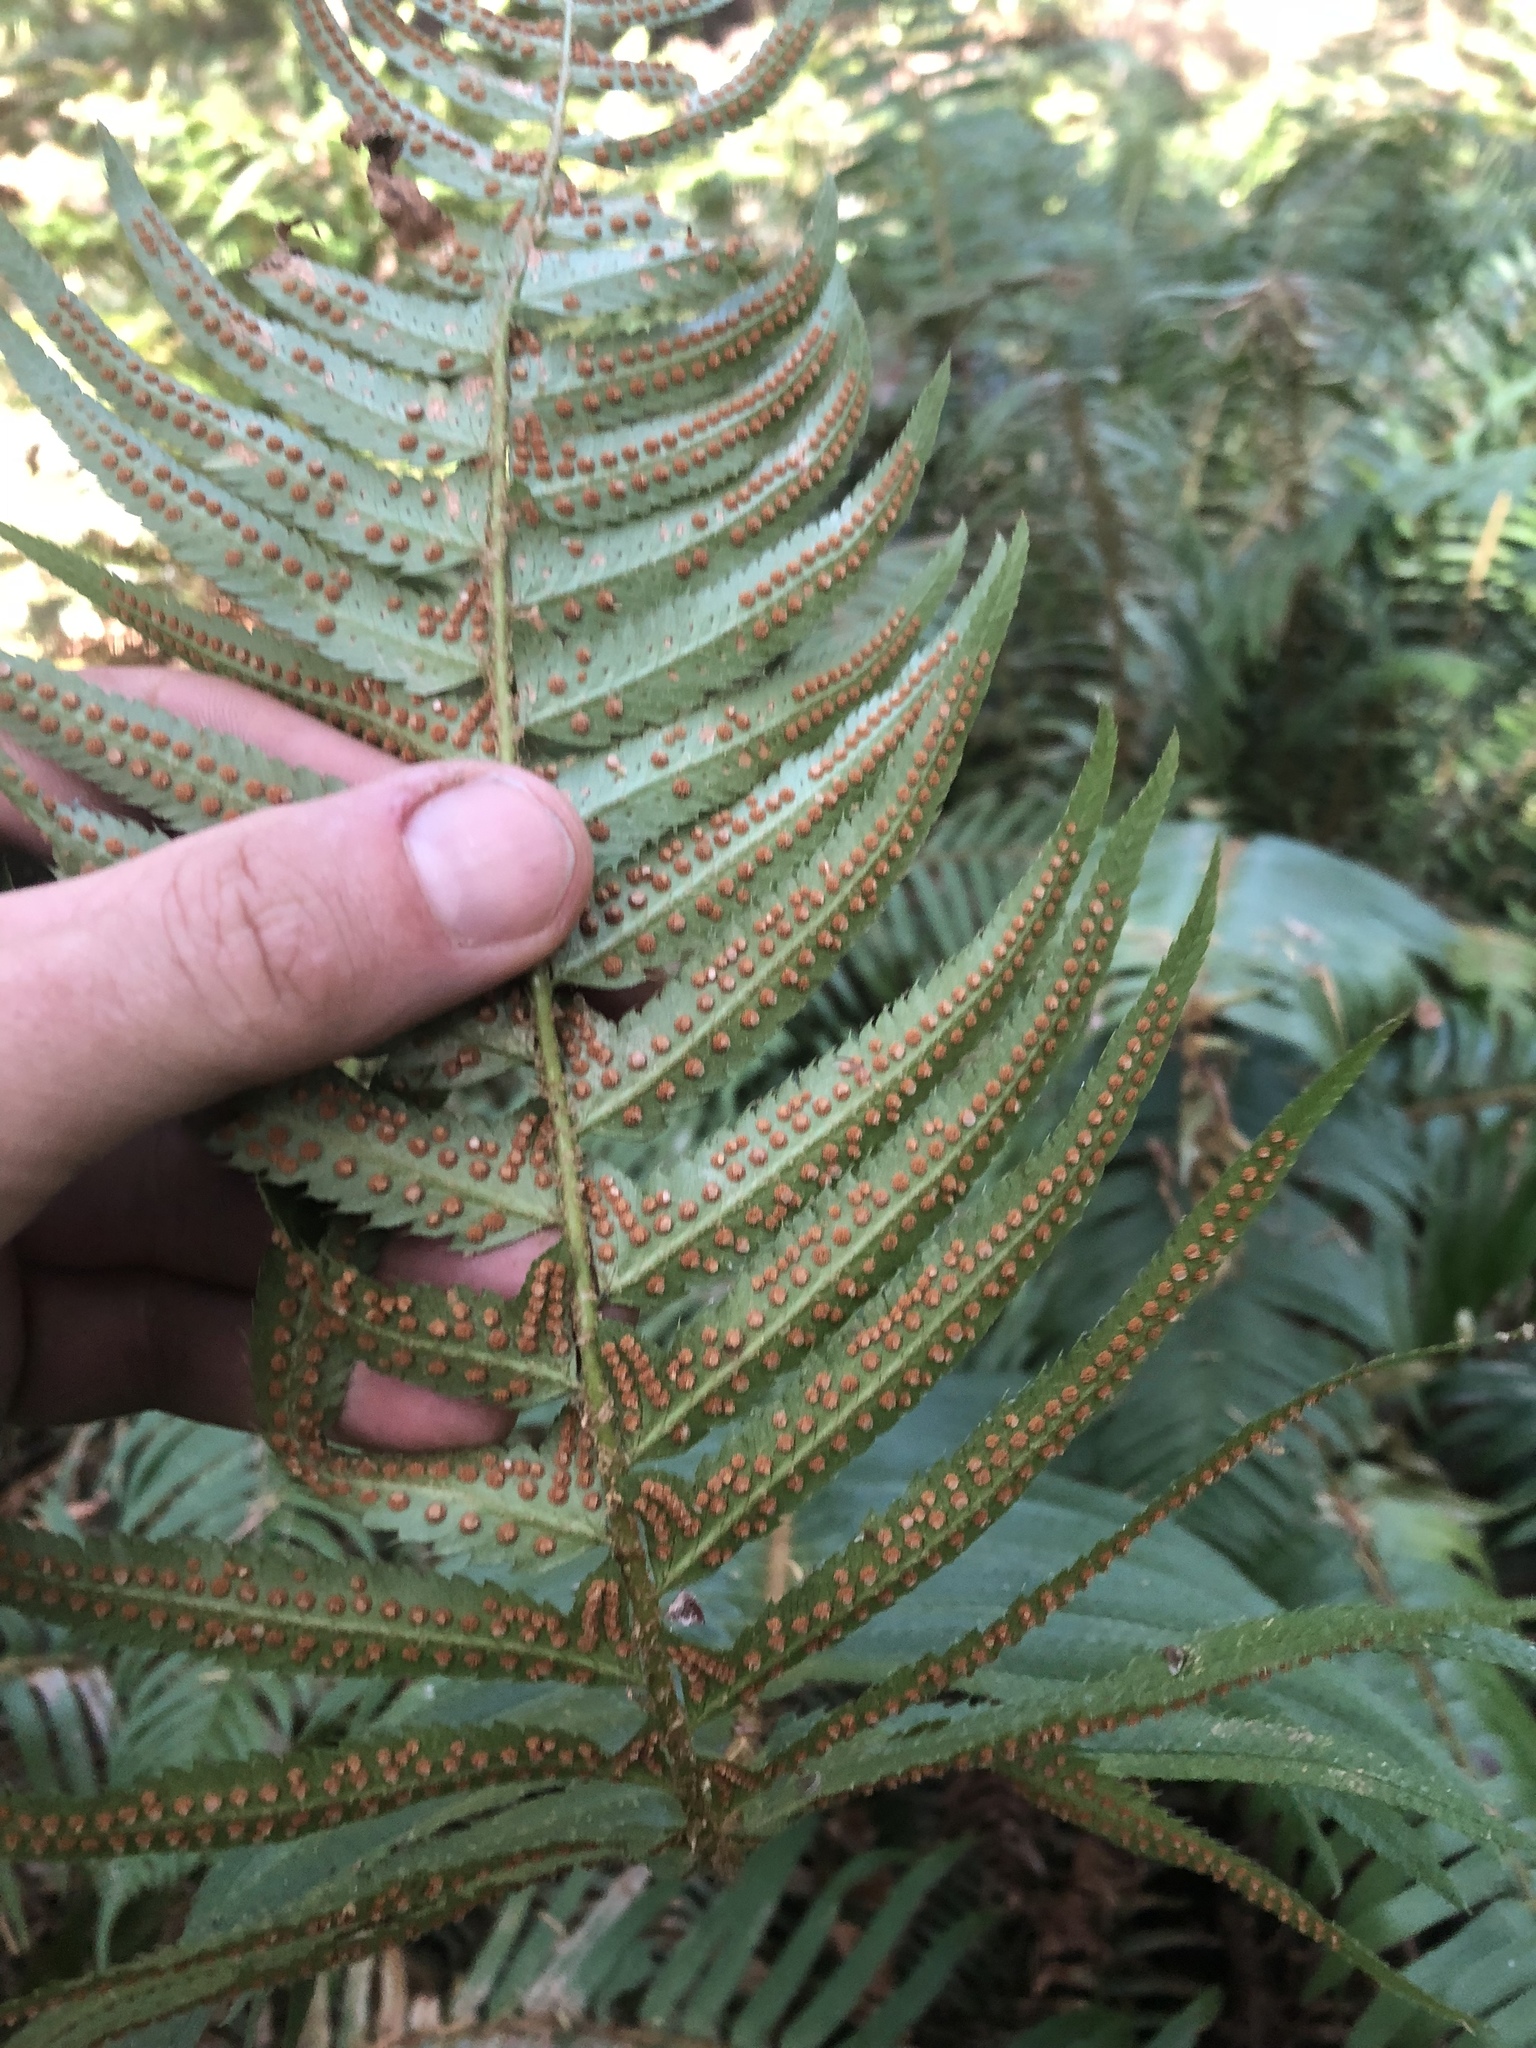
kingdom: Plantae
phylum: Tracheophyta
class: Polypodiopsida
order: Polypodiales
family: Dryopteridaceae
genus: Polystichum
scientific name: Polystichum munitum
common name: Western sword-fern
